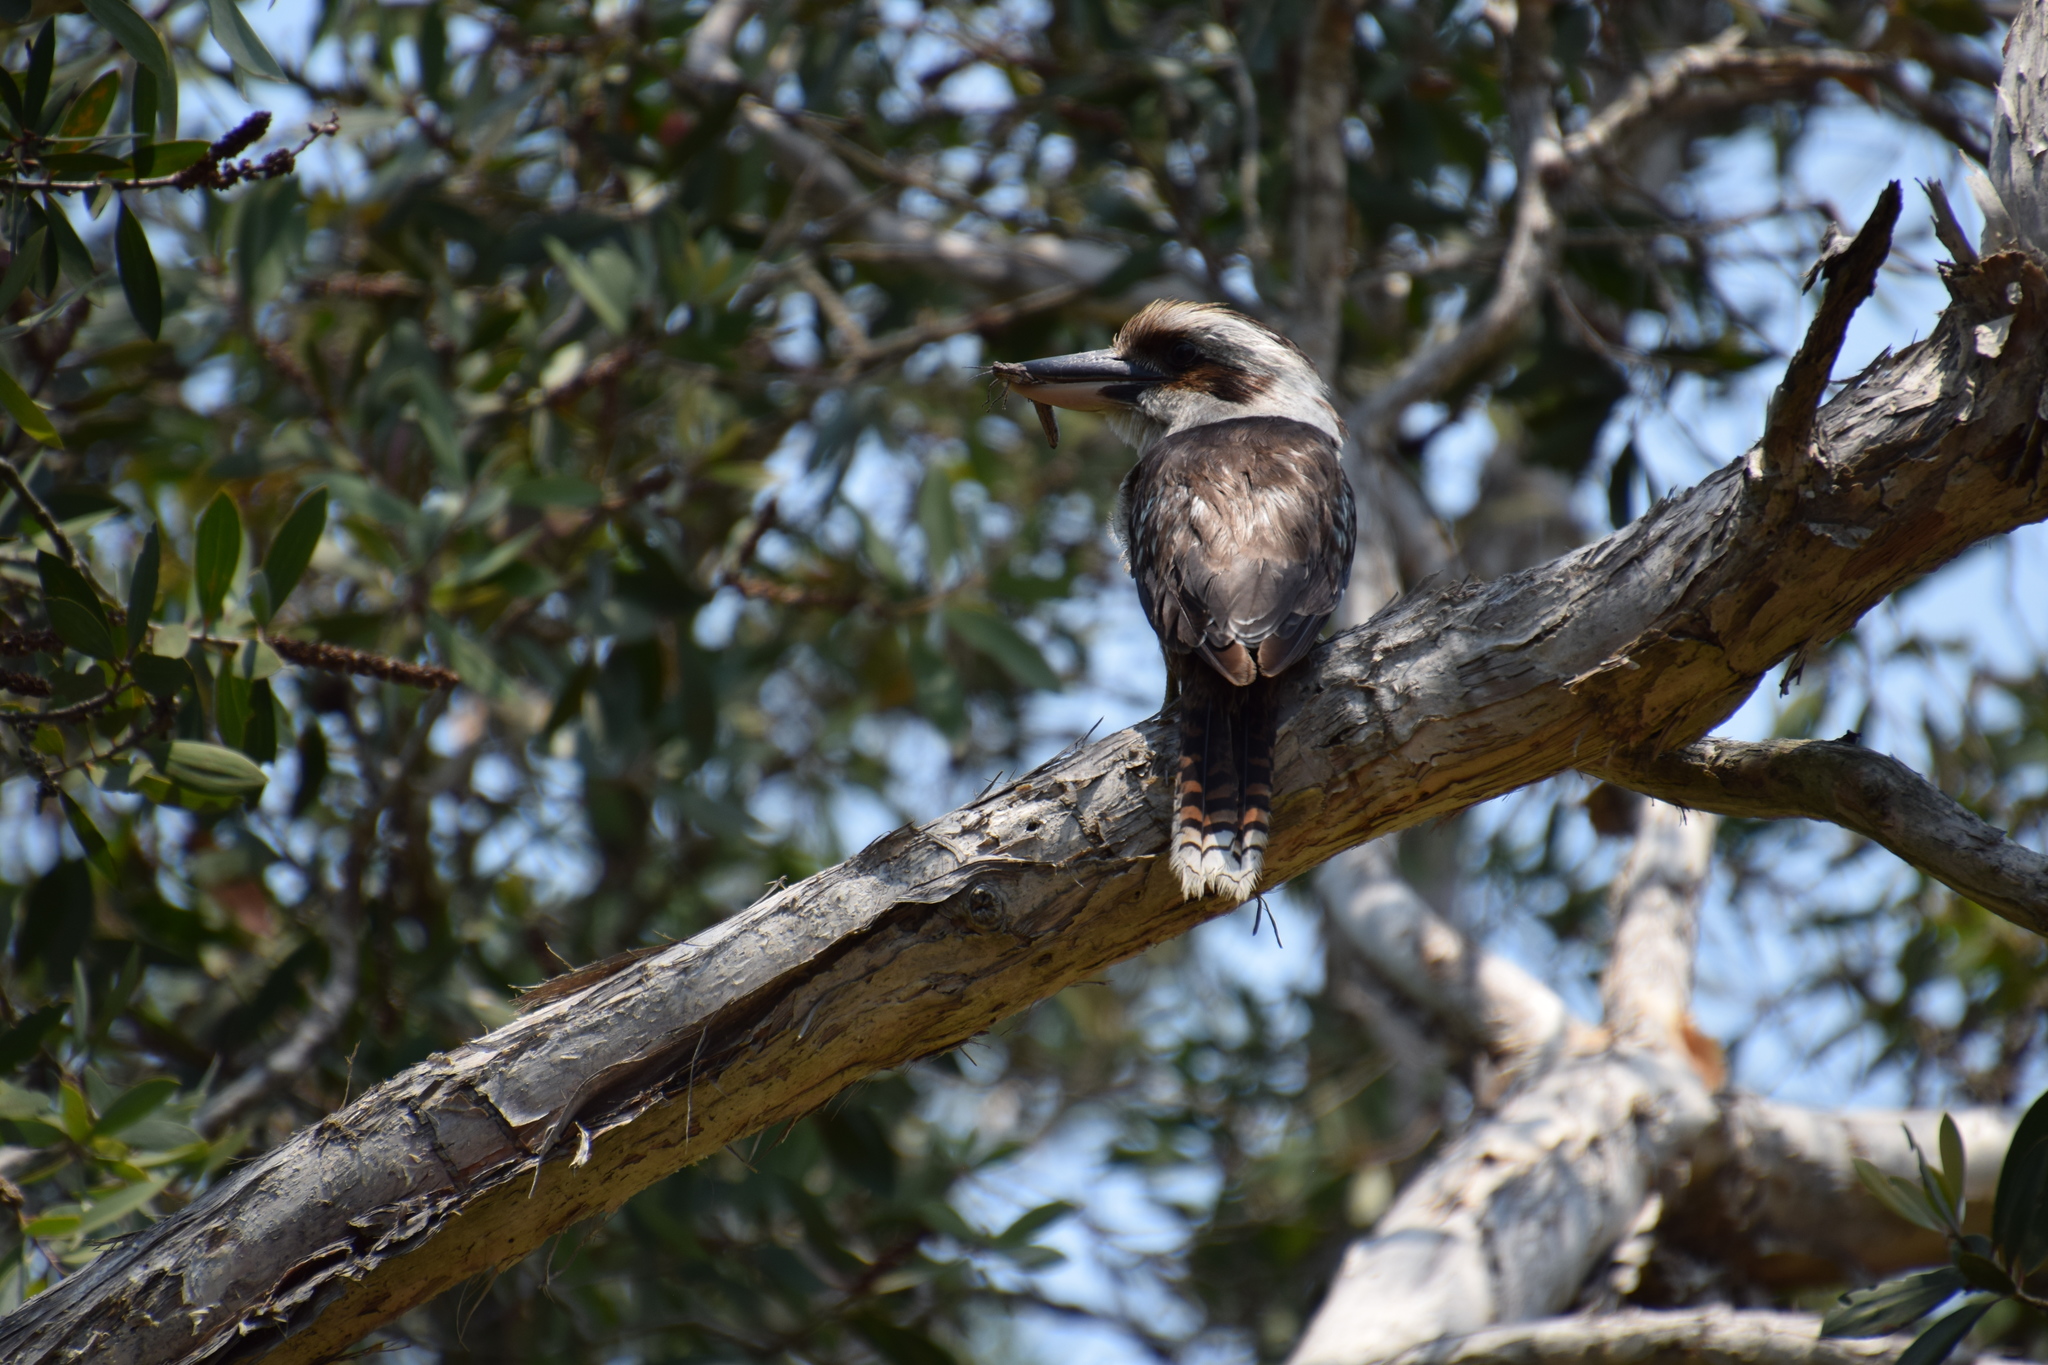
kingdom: Animalia
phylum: Chordata
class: Aves
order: Coraciiformes
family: Alcedinidae
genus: Dacelo
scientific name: Dacelo novaeguineae
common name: Laughing kookaburra
